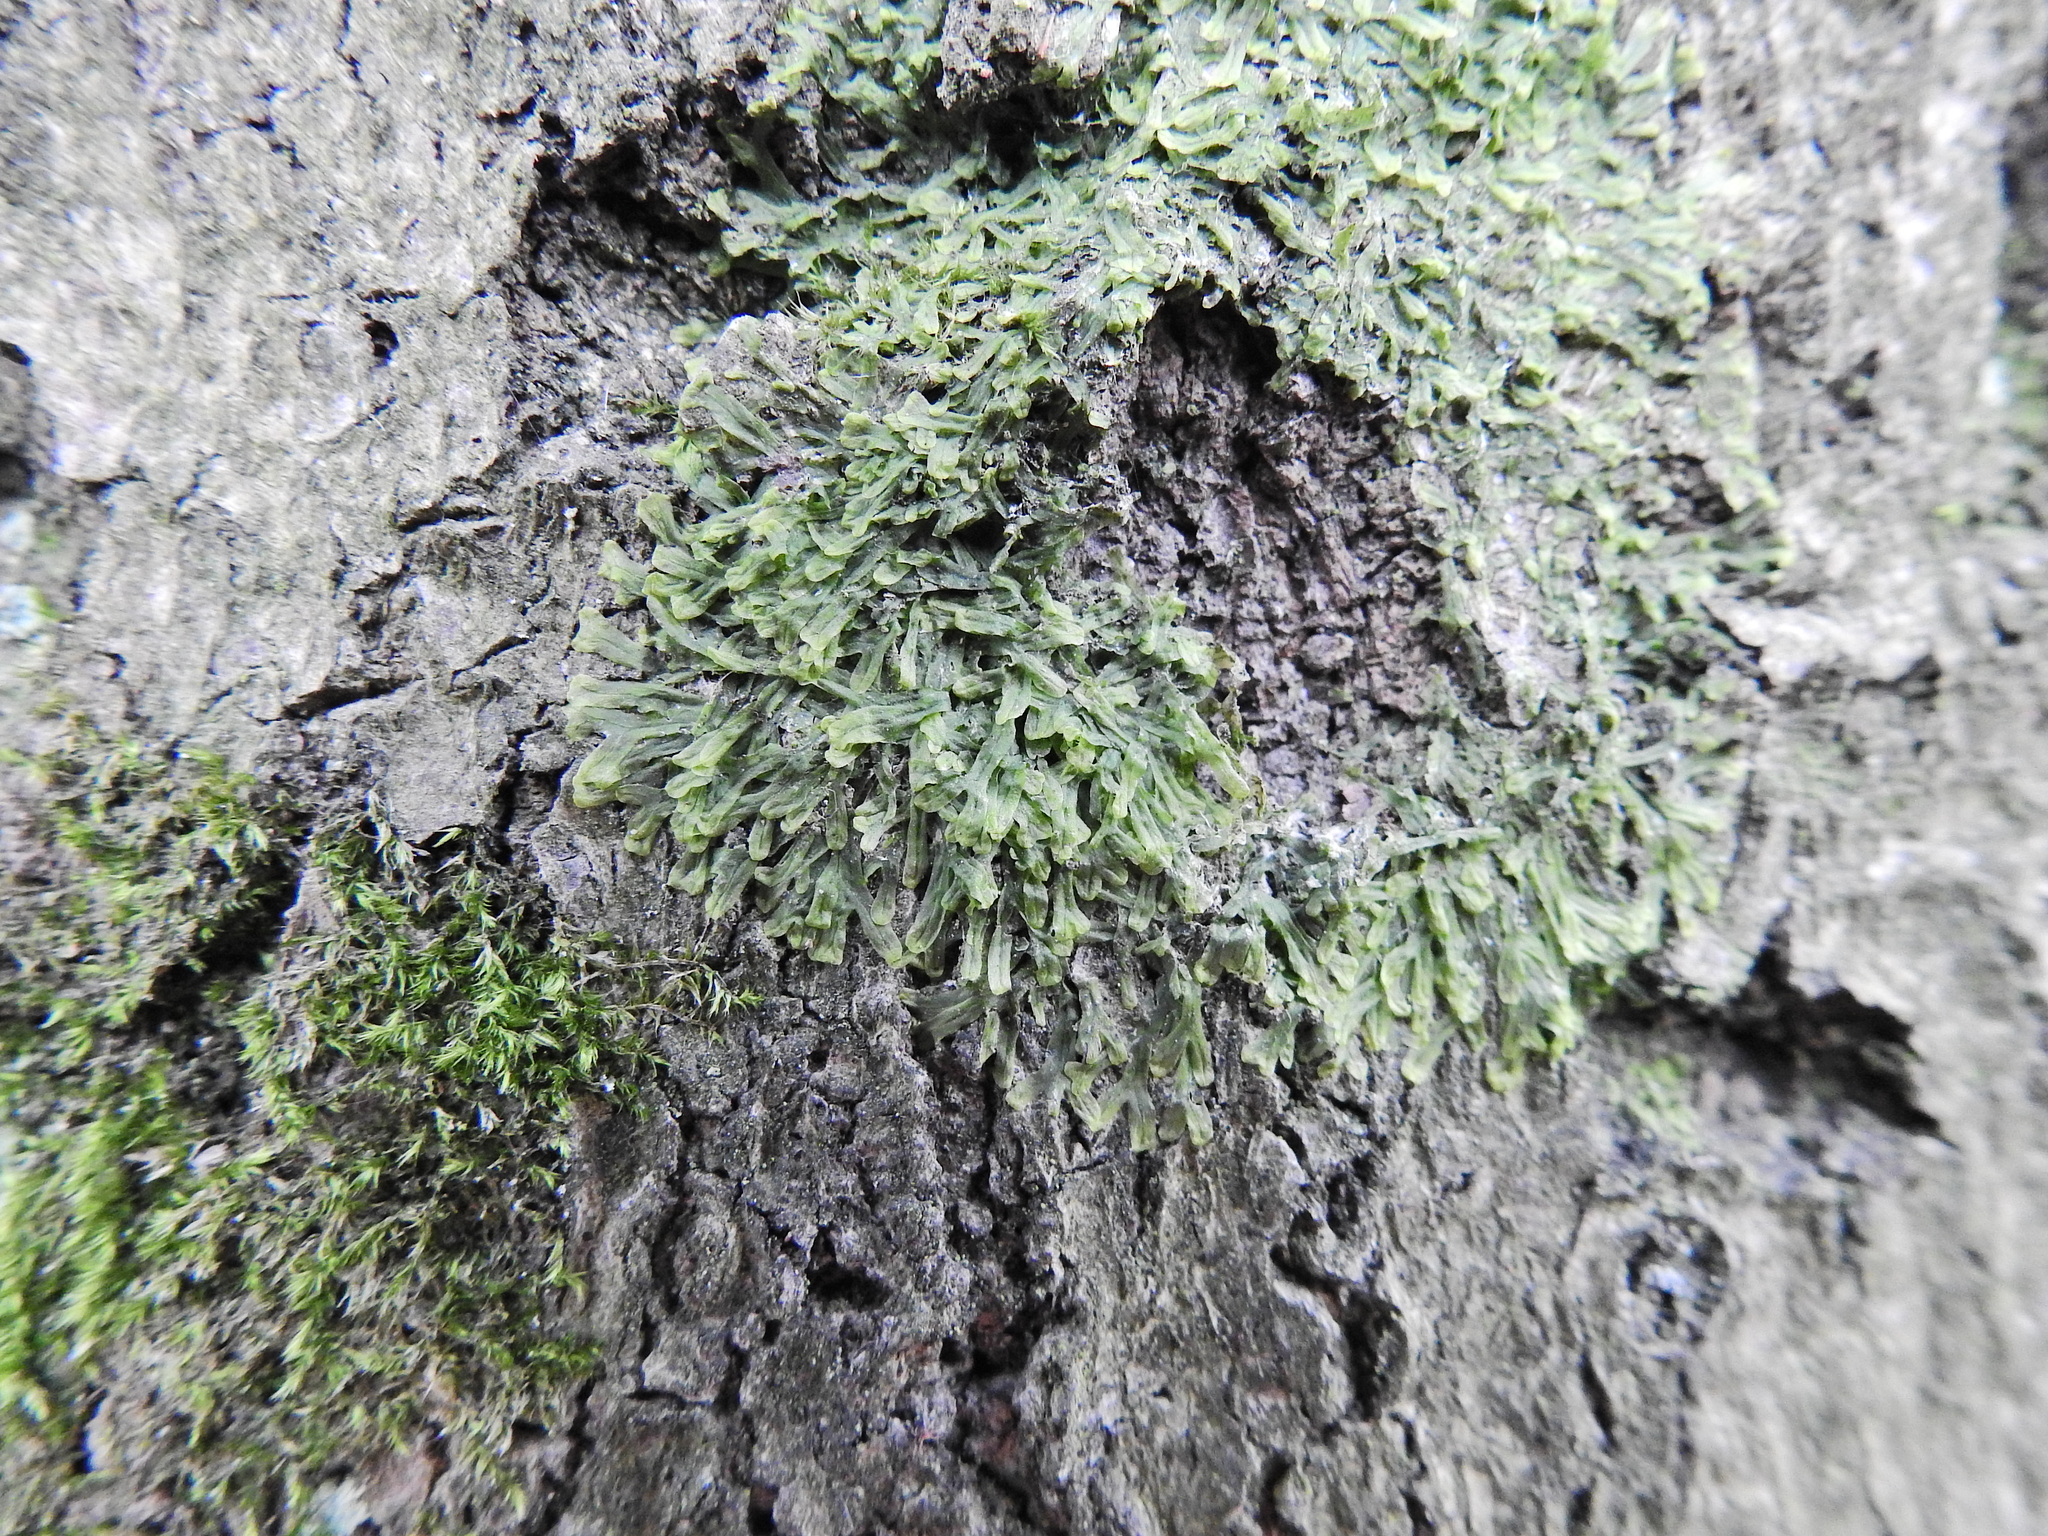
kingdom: Plantae
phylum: Marchantiophyta
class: Jungermanniopsida
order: Metzgeriales
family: Metzgeriaceae
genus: Metzgeria
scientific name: Metzgeria furcata
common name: Forked veilwort
